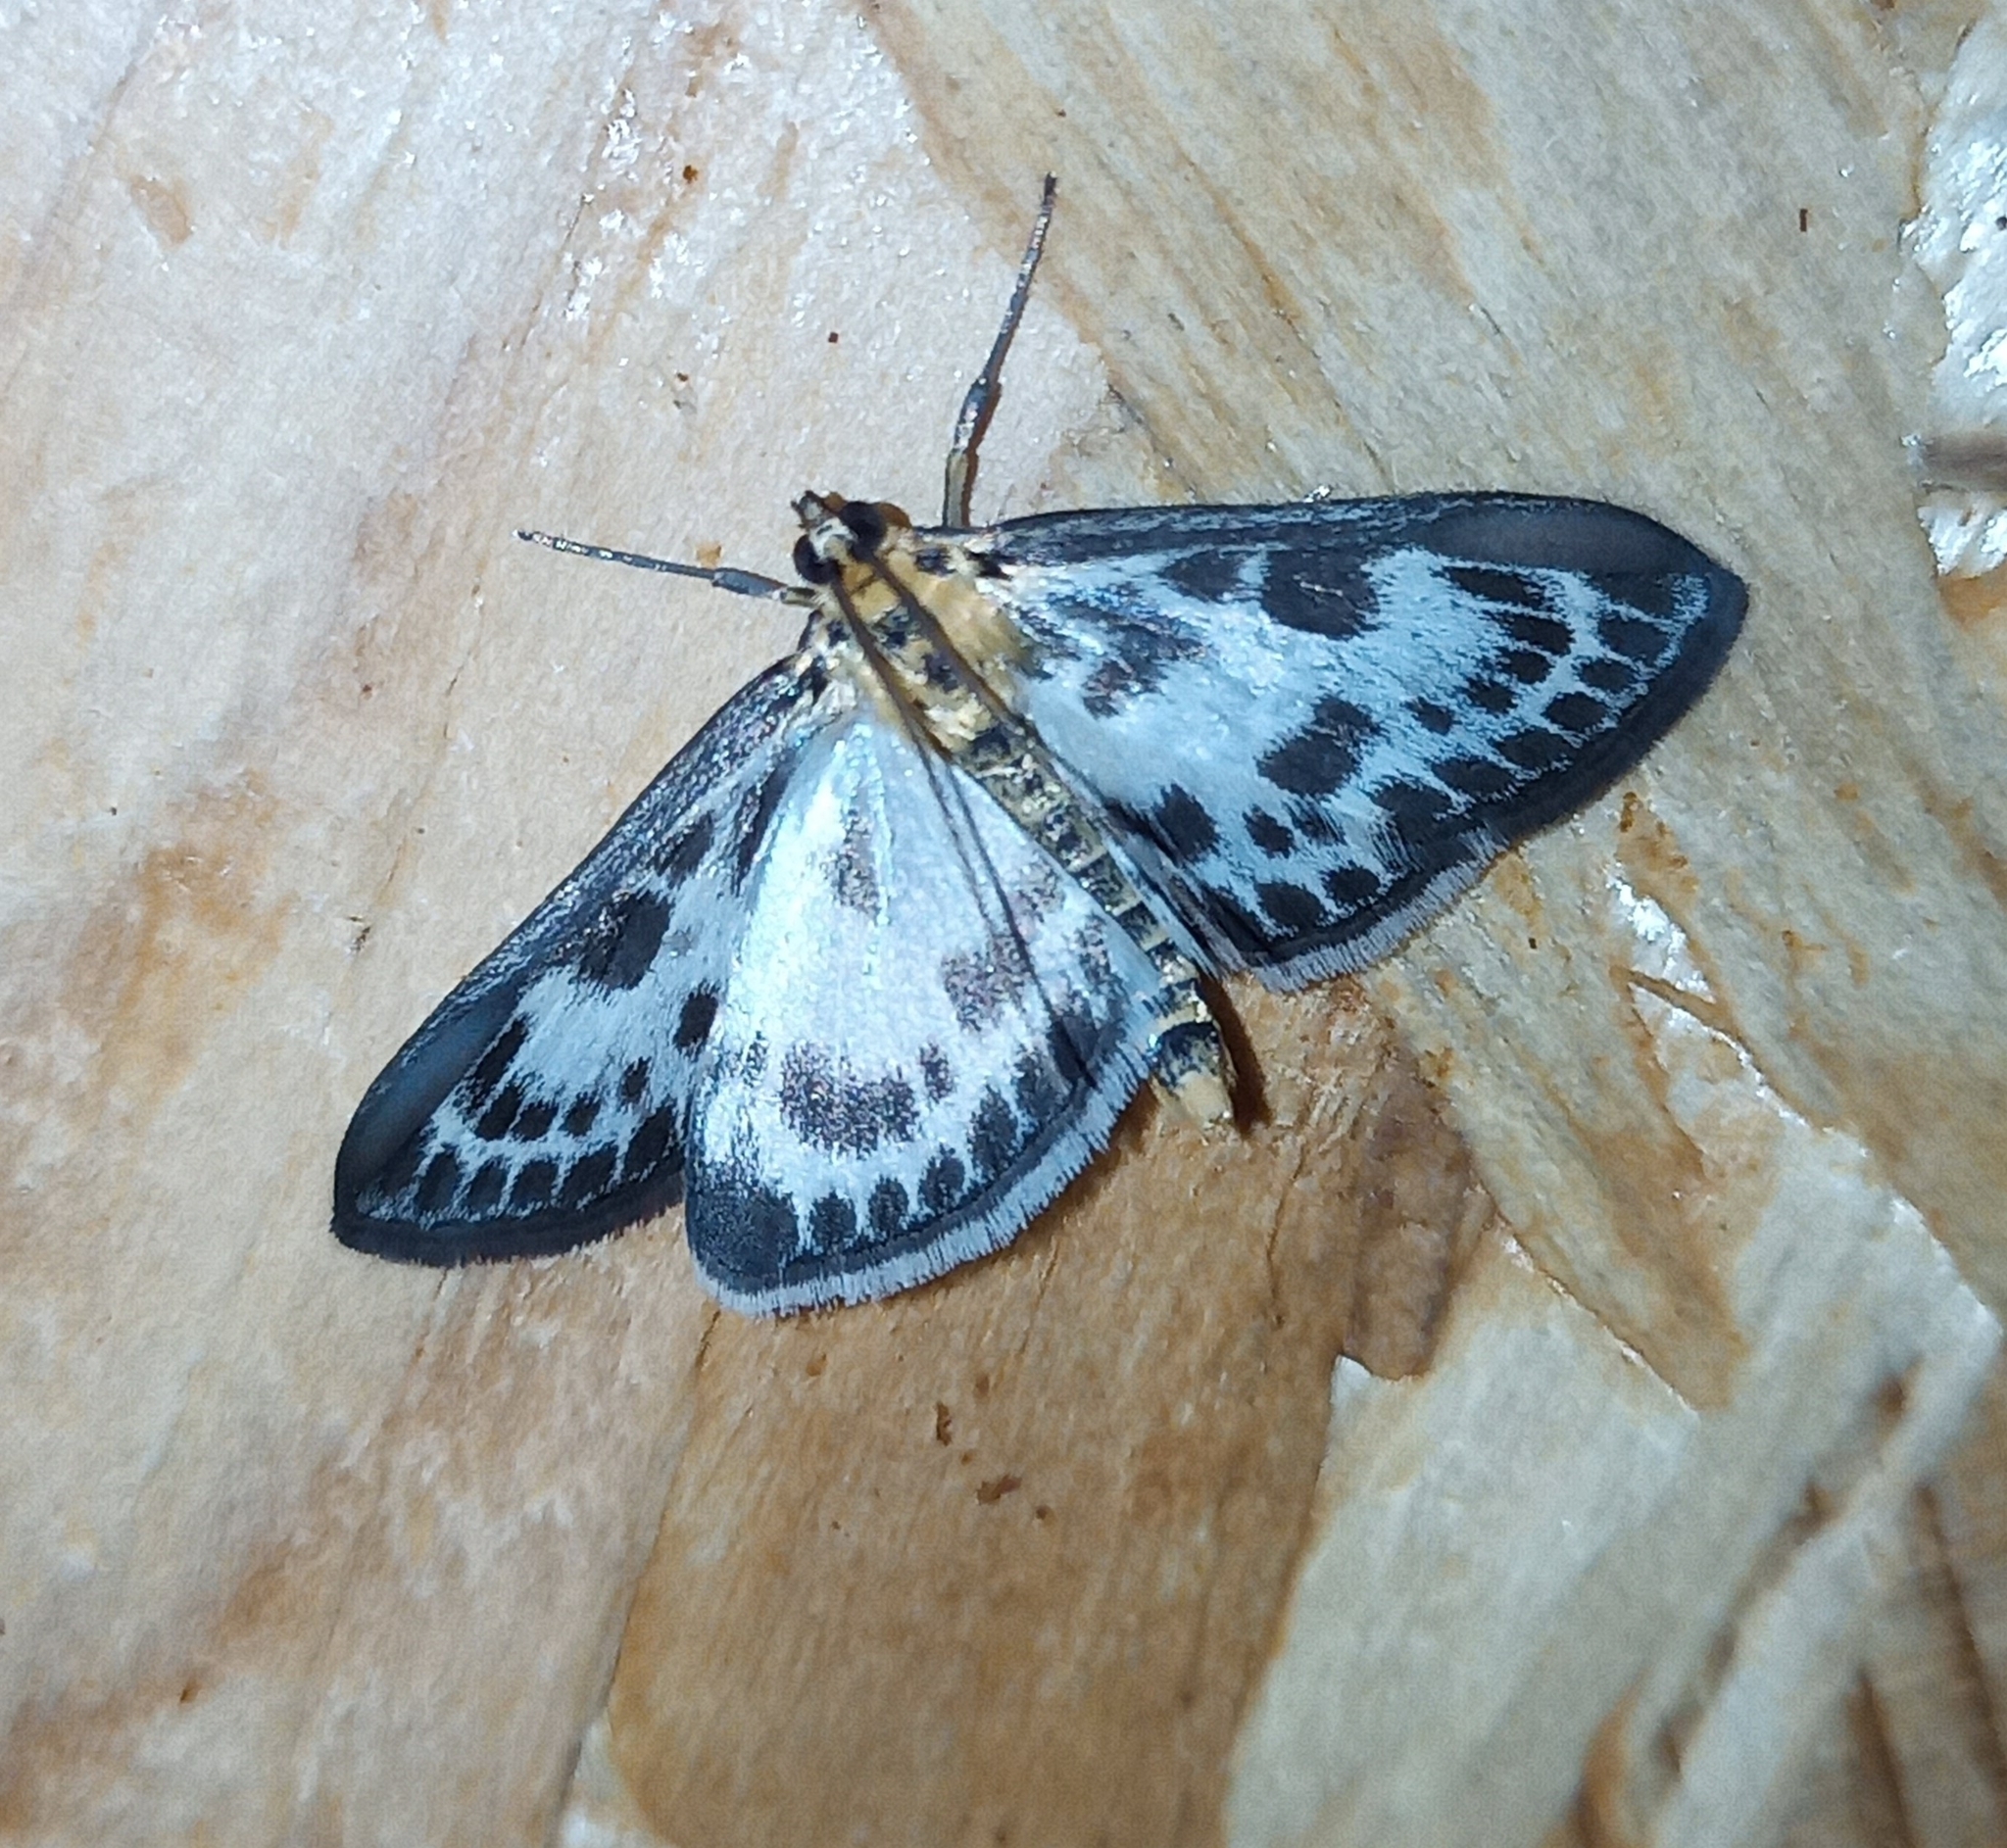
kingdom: Animalia
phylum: Arthropoda
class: Insecta
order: Lepidoptera
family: Crambidae
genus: Anania
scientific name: Anania hortulata
